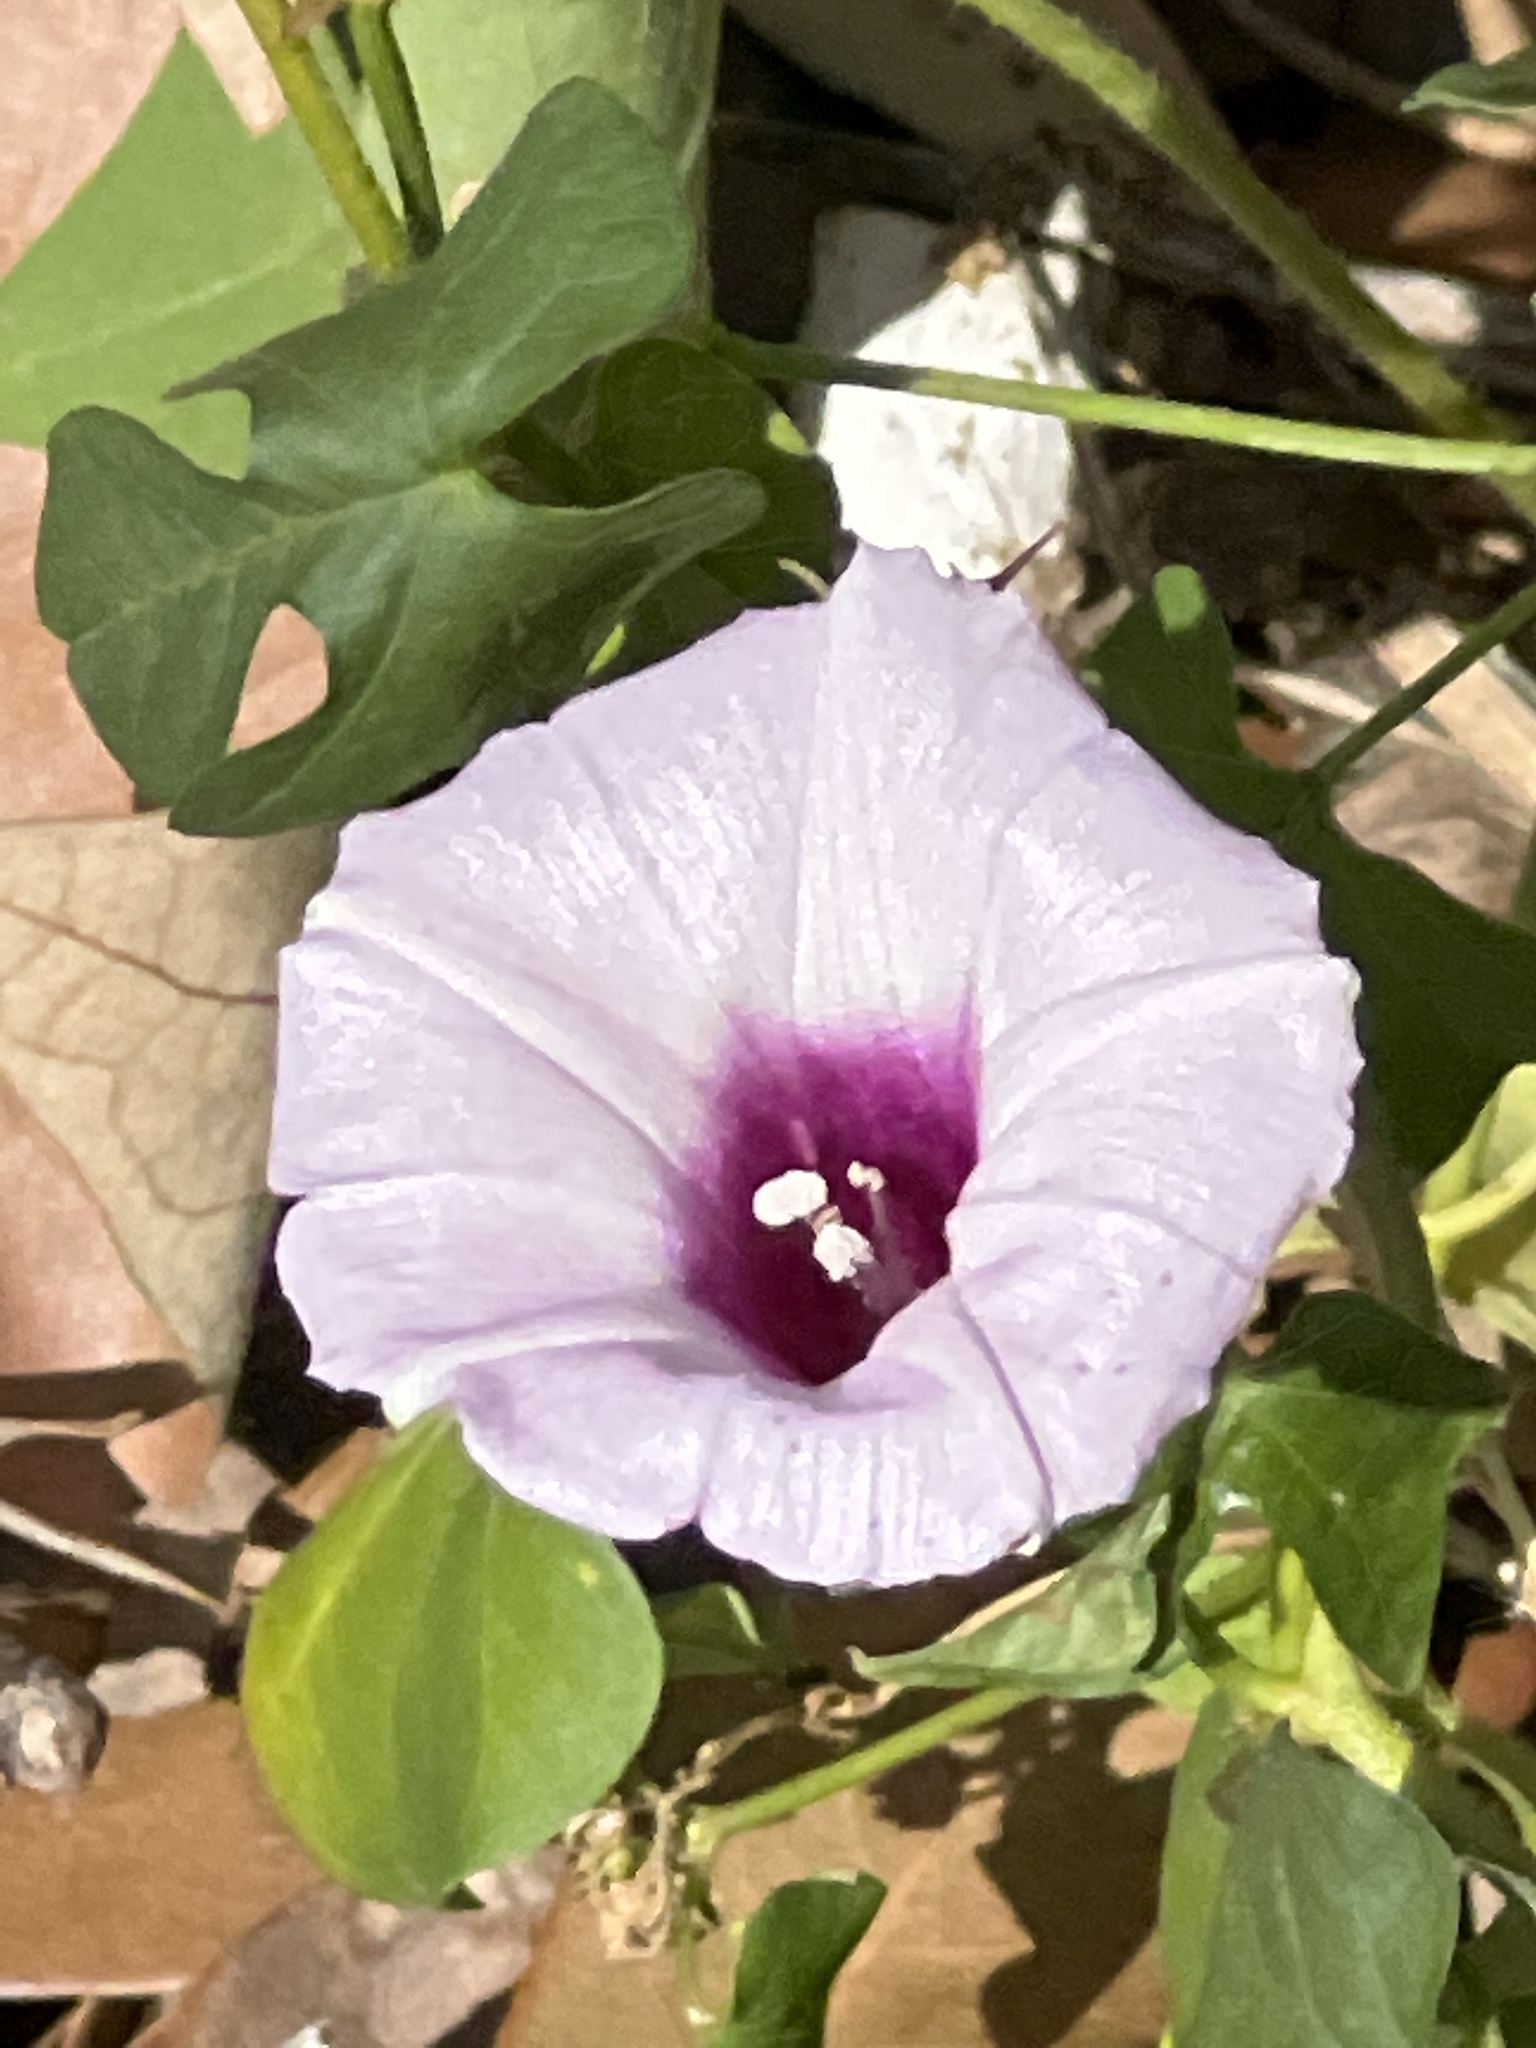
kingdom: Plantae
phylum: Tracheophyta
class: Magnoliopsida
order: Solanales
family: Convolvulaceae
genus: Ipomoea
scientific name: Ipomoea cordatotriloba
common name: Cotton morning glory
